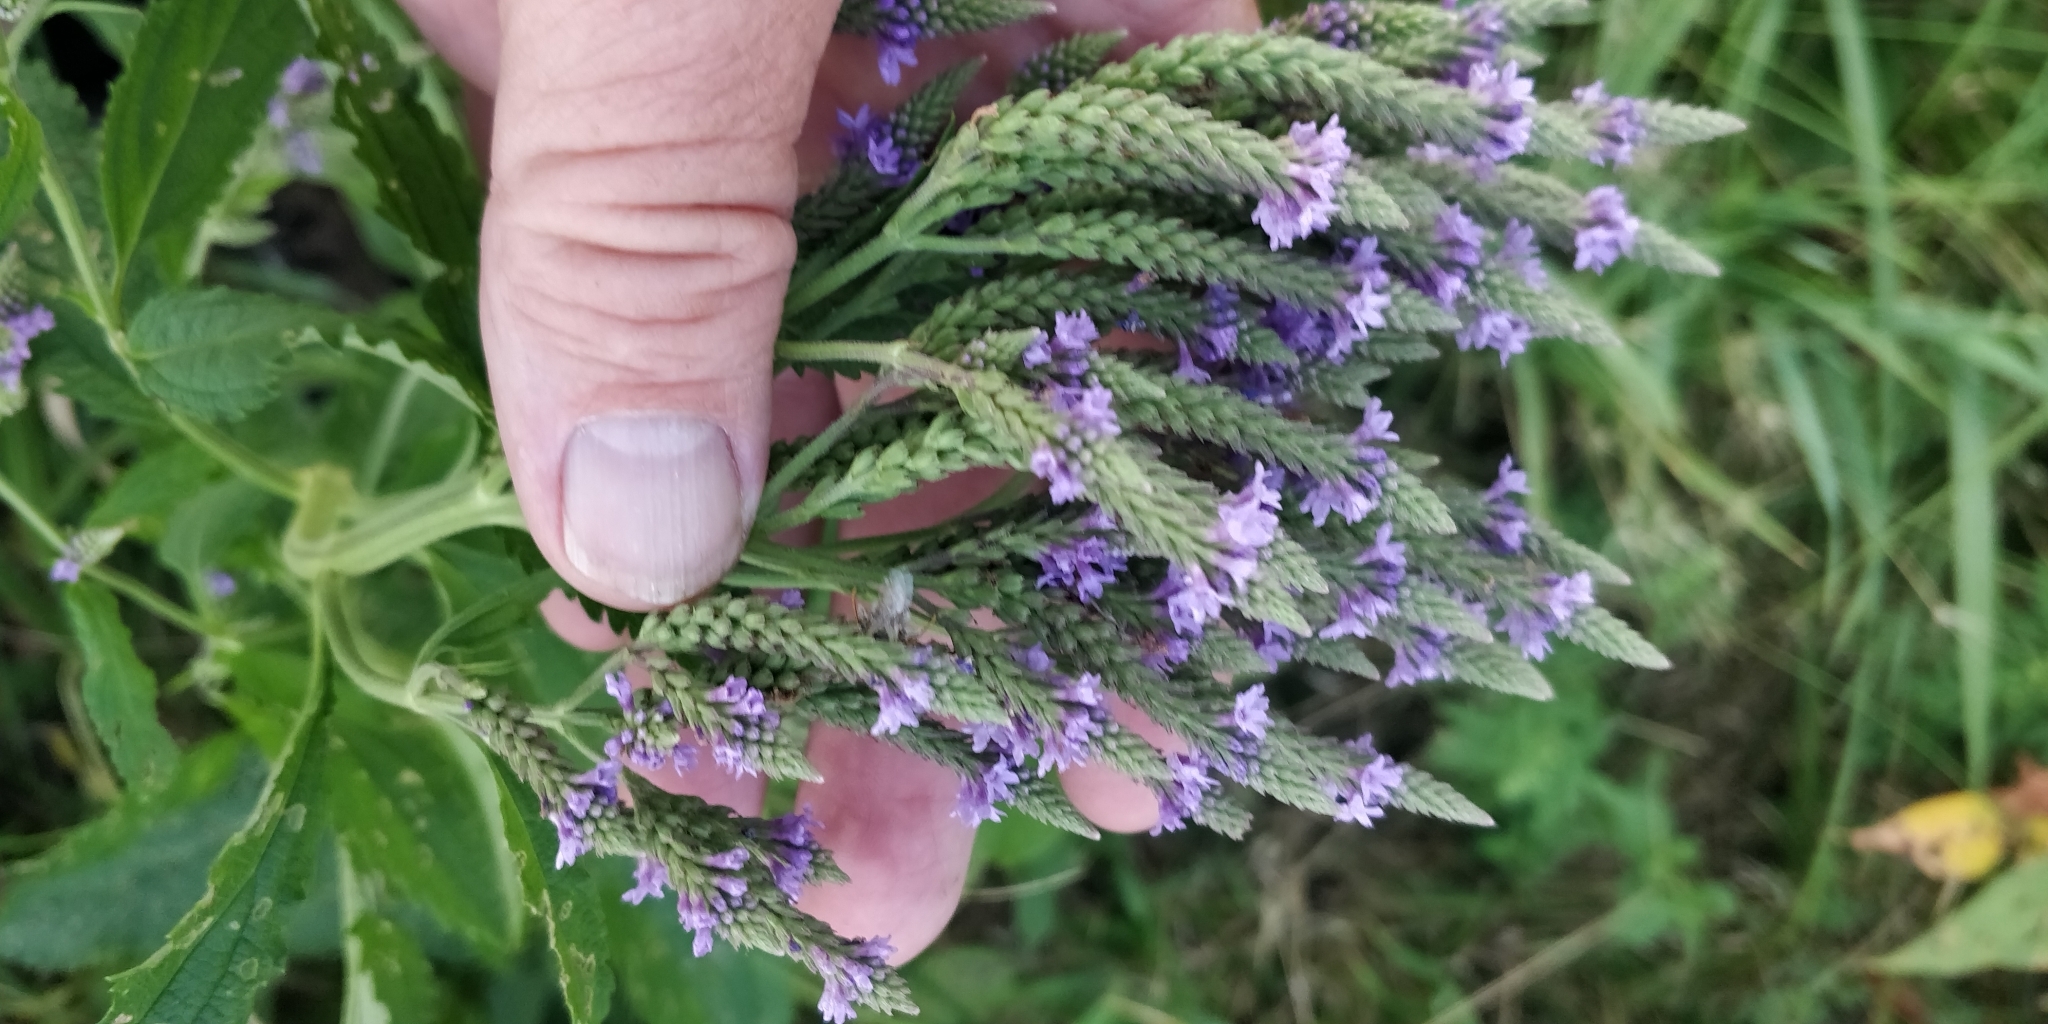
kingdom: Plantae
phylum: Tracheophyta
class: Magnoliopsida
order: Lamiales
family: Verbenaceae
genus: Verbena
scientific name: Verbena hastata
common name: American blue vervain
